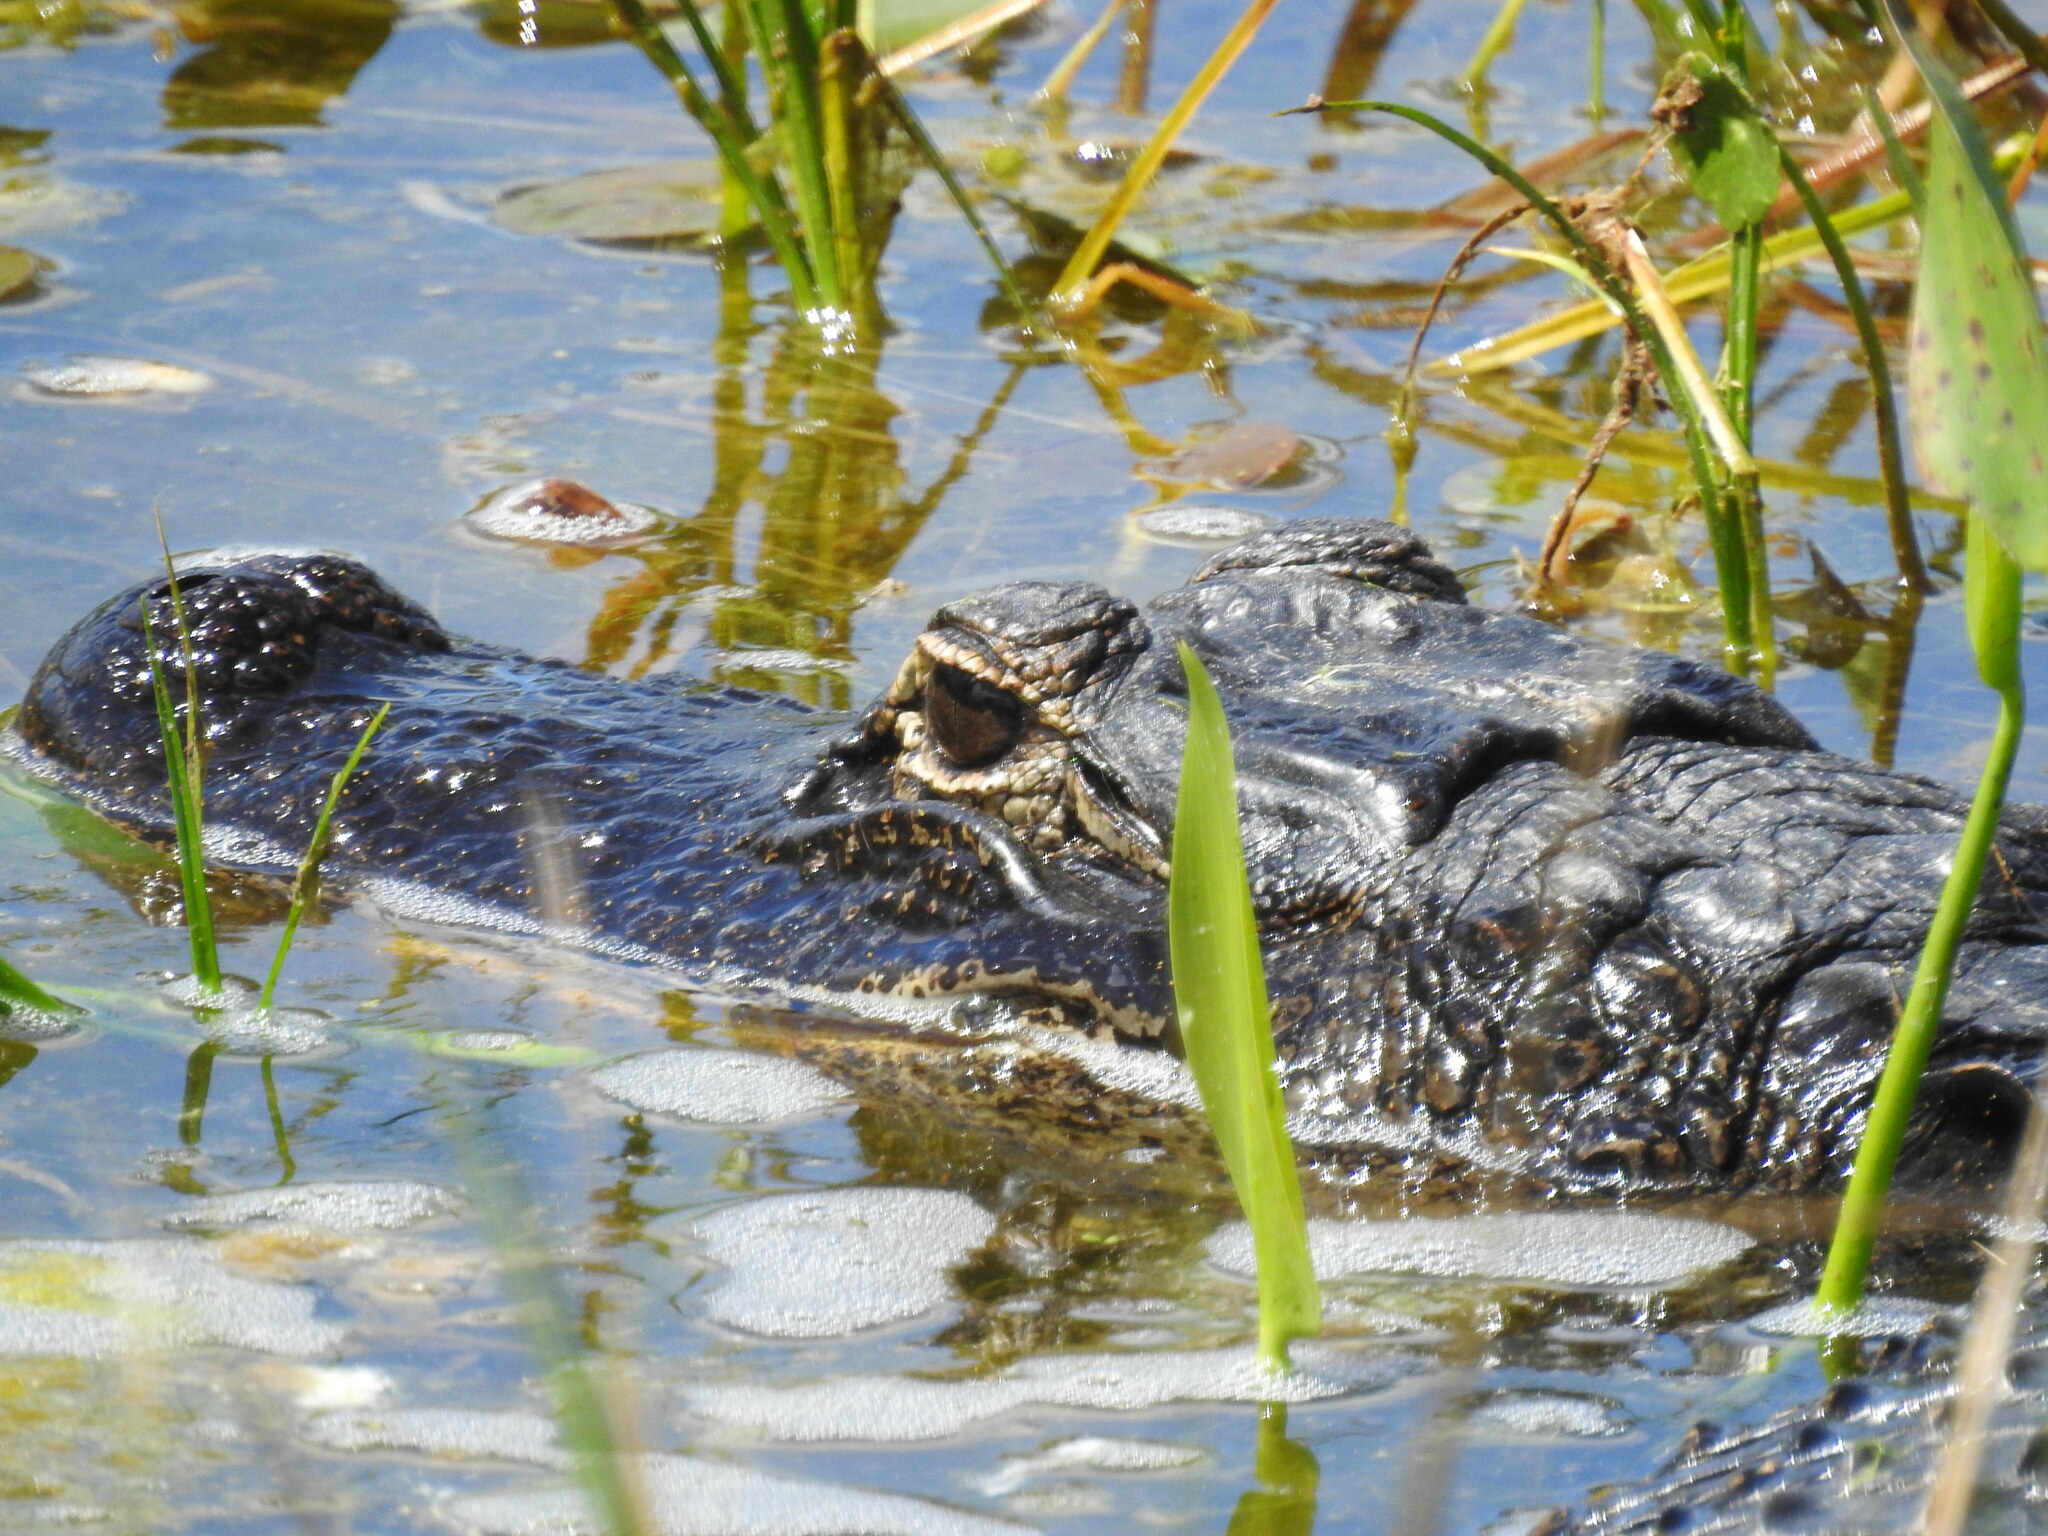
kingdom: Animalia
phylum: Chordata
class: Crocodylia
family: Alligatoridae
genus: Alligator
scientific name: Alligator mississippiensis
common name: American alligator
